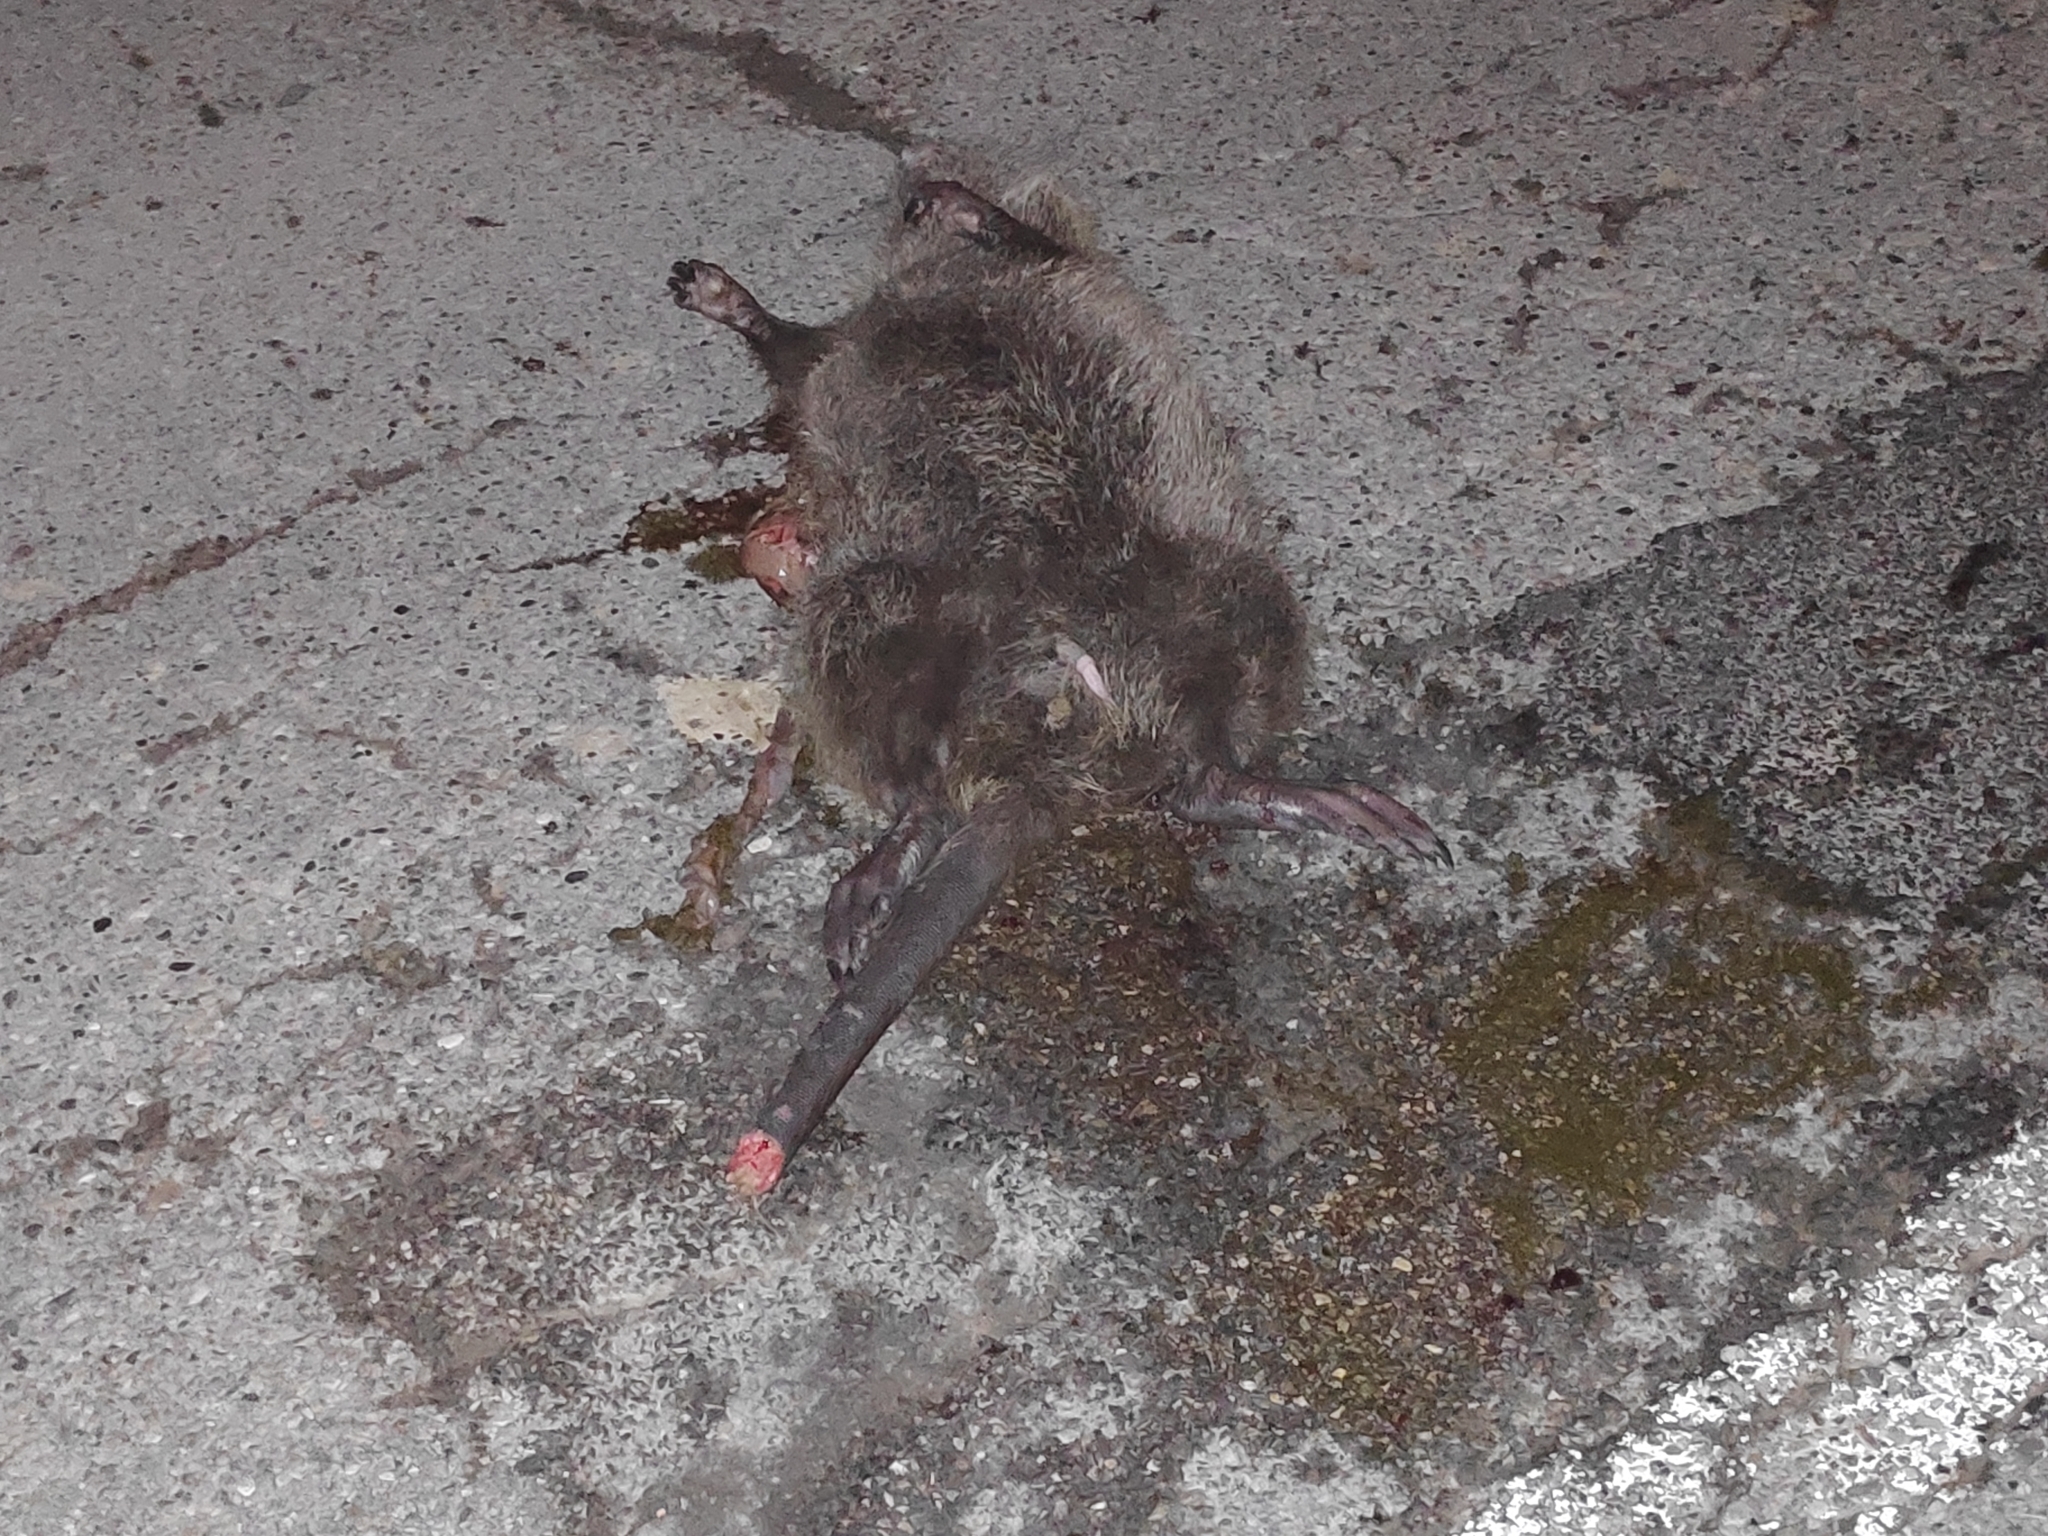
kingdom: Animalia
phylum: Chordata
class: Mammalia
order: Rodentia
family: Myocastoridae
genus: Myocastor
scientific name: Myocastor coypus
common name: Coypu
